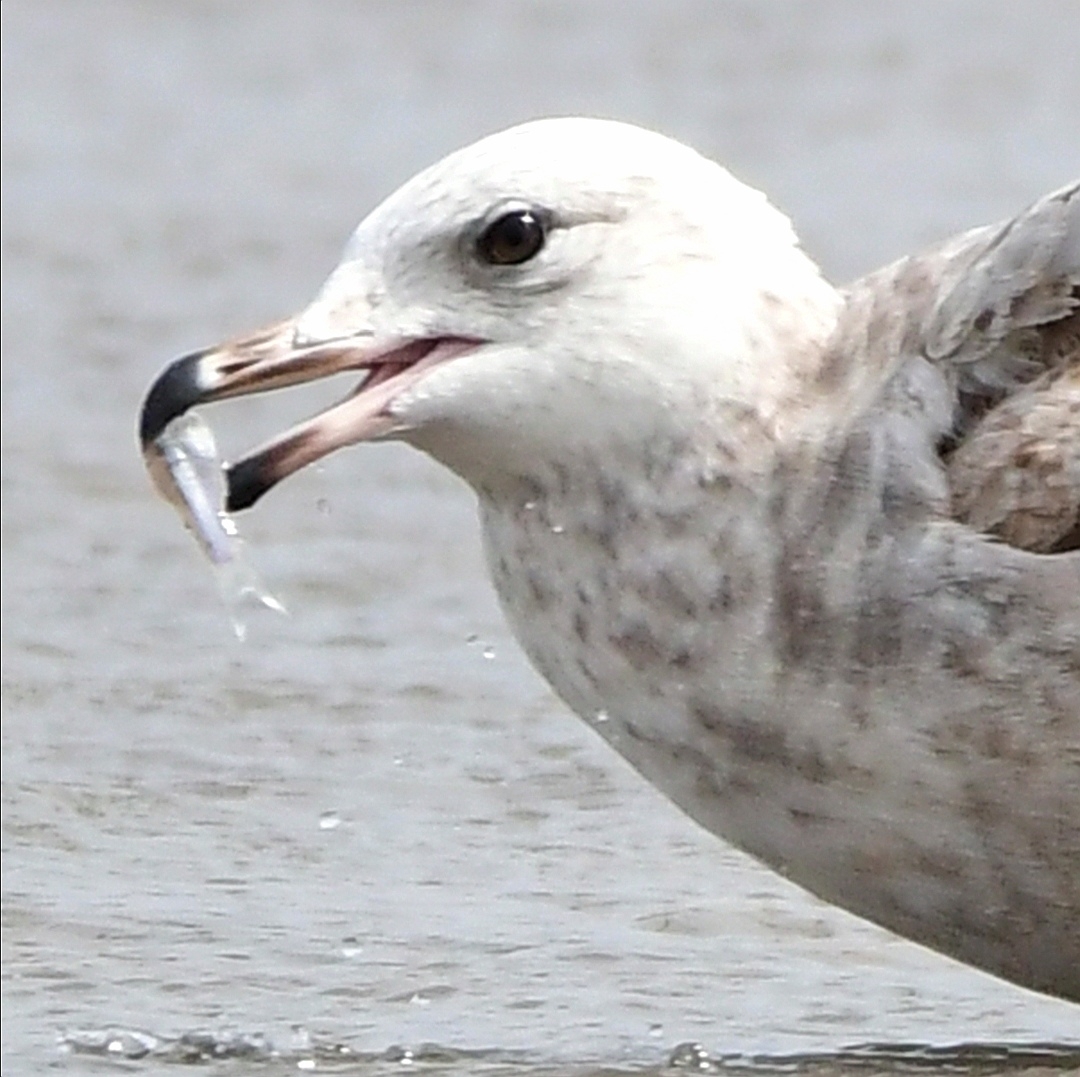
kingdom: Animalia
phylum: Chordata
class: Aves
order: Charadriiformes
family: Laridae
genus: Larus
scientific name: Larus delawarensis
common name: Ring-billed gull
